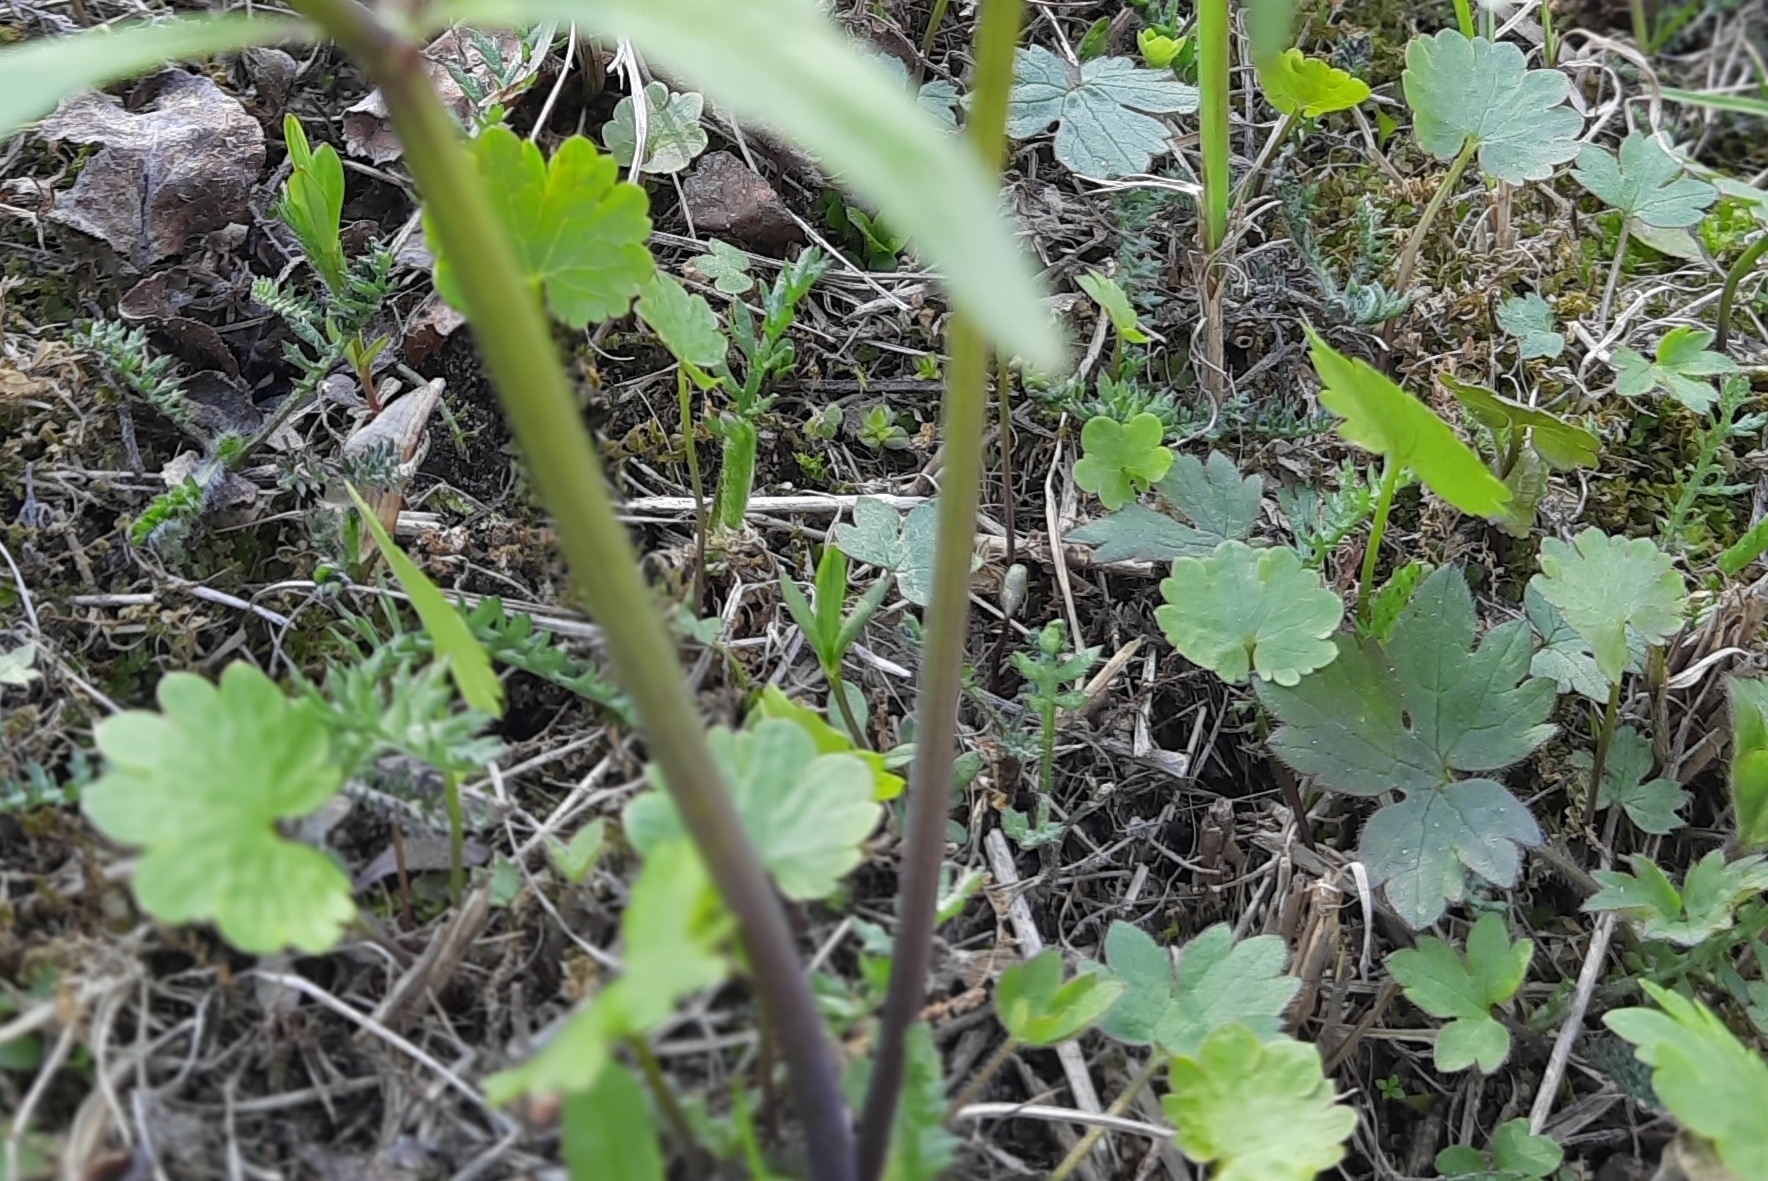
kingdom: Plantae
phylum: Tracheophyta
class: Magnoliopsida
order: Ranunculales
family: Ranunculaceae
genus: Ranunculus
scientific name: Ranunculus monophyllus
